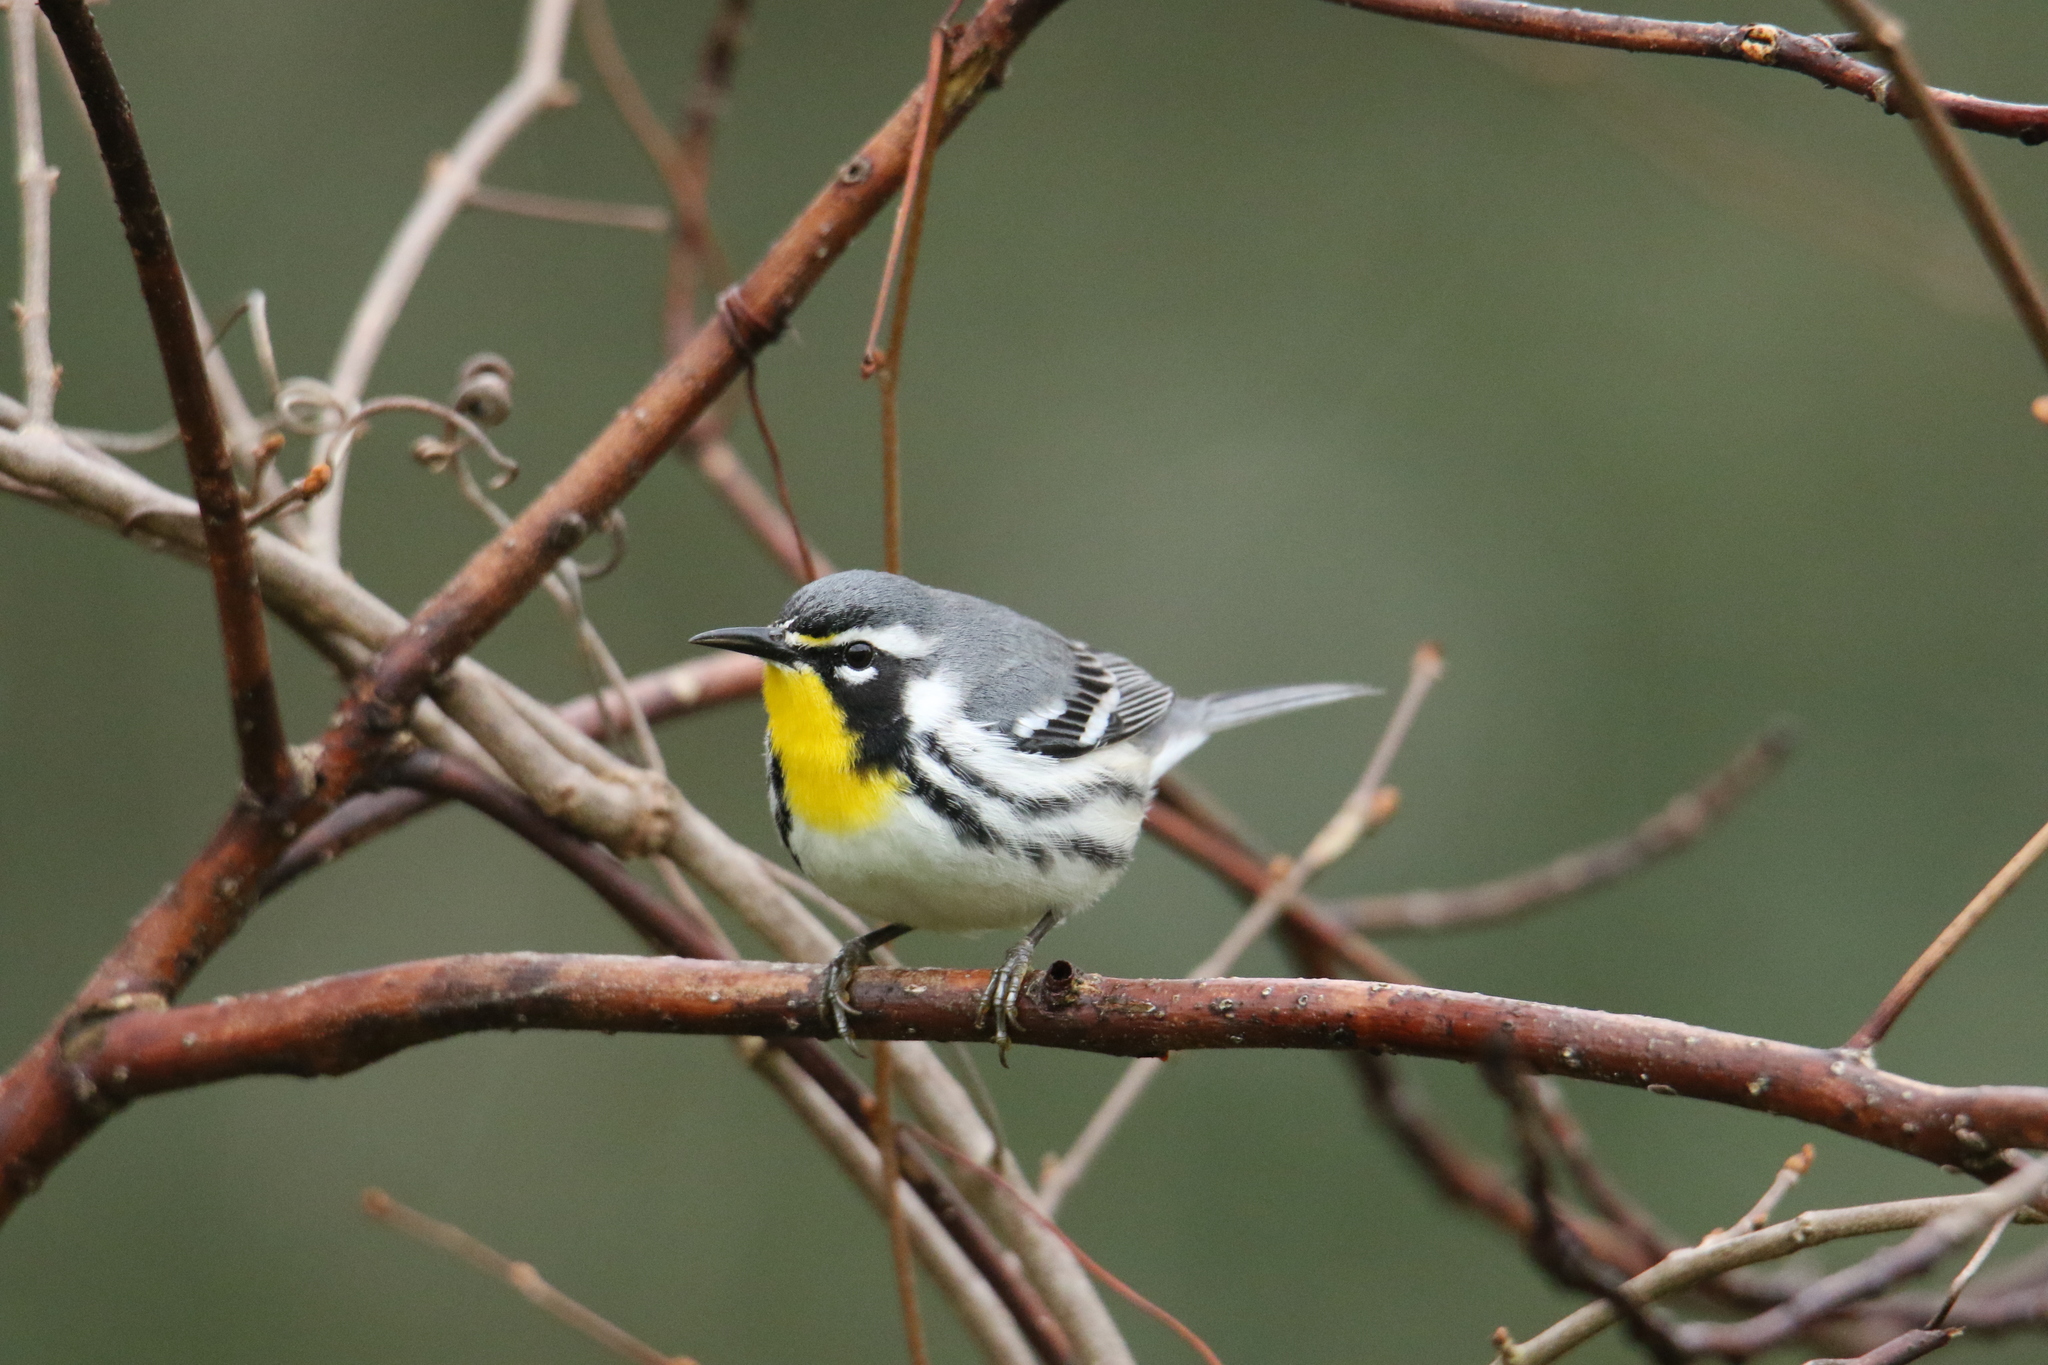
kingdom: Animalia
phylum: Chordata
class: Aves
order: Passeriformes
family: Parulidae
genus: Setophaga
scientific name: Setophaga dominica
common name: Yellow-throated warbler
